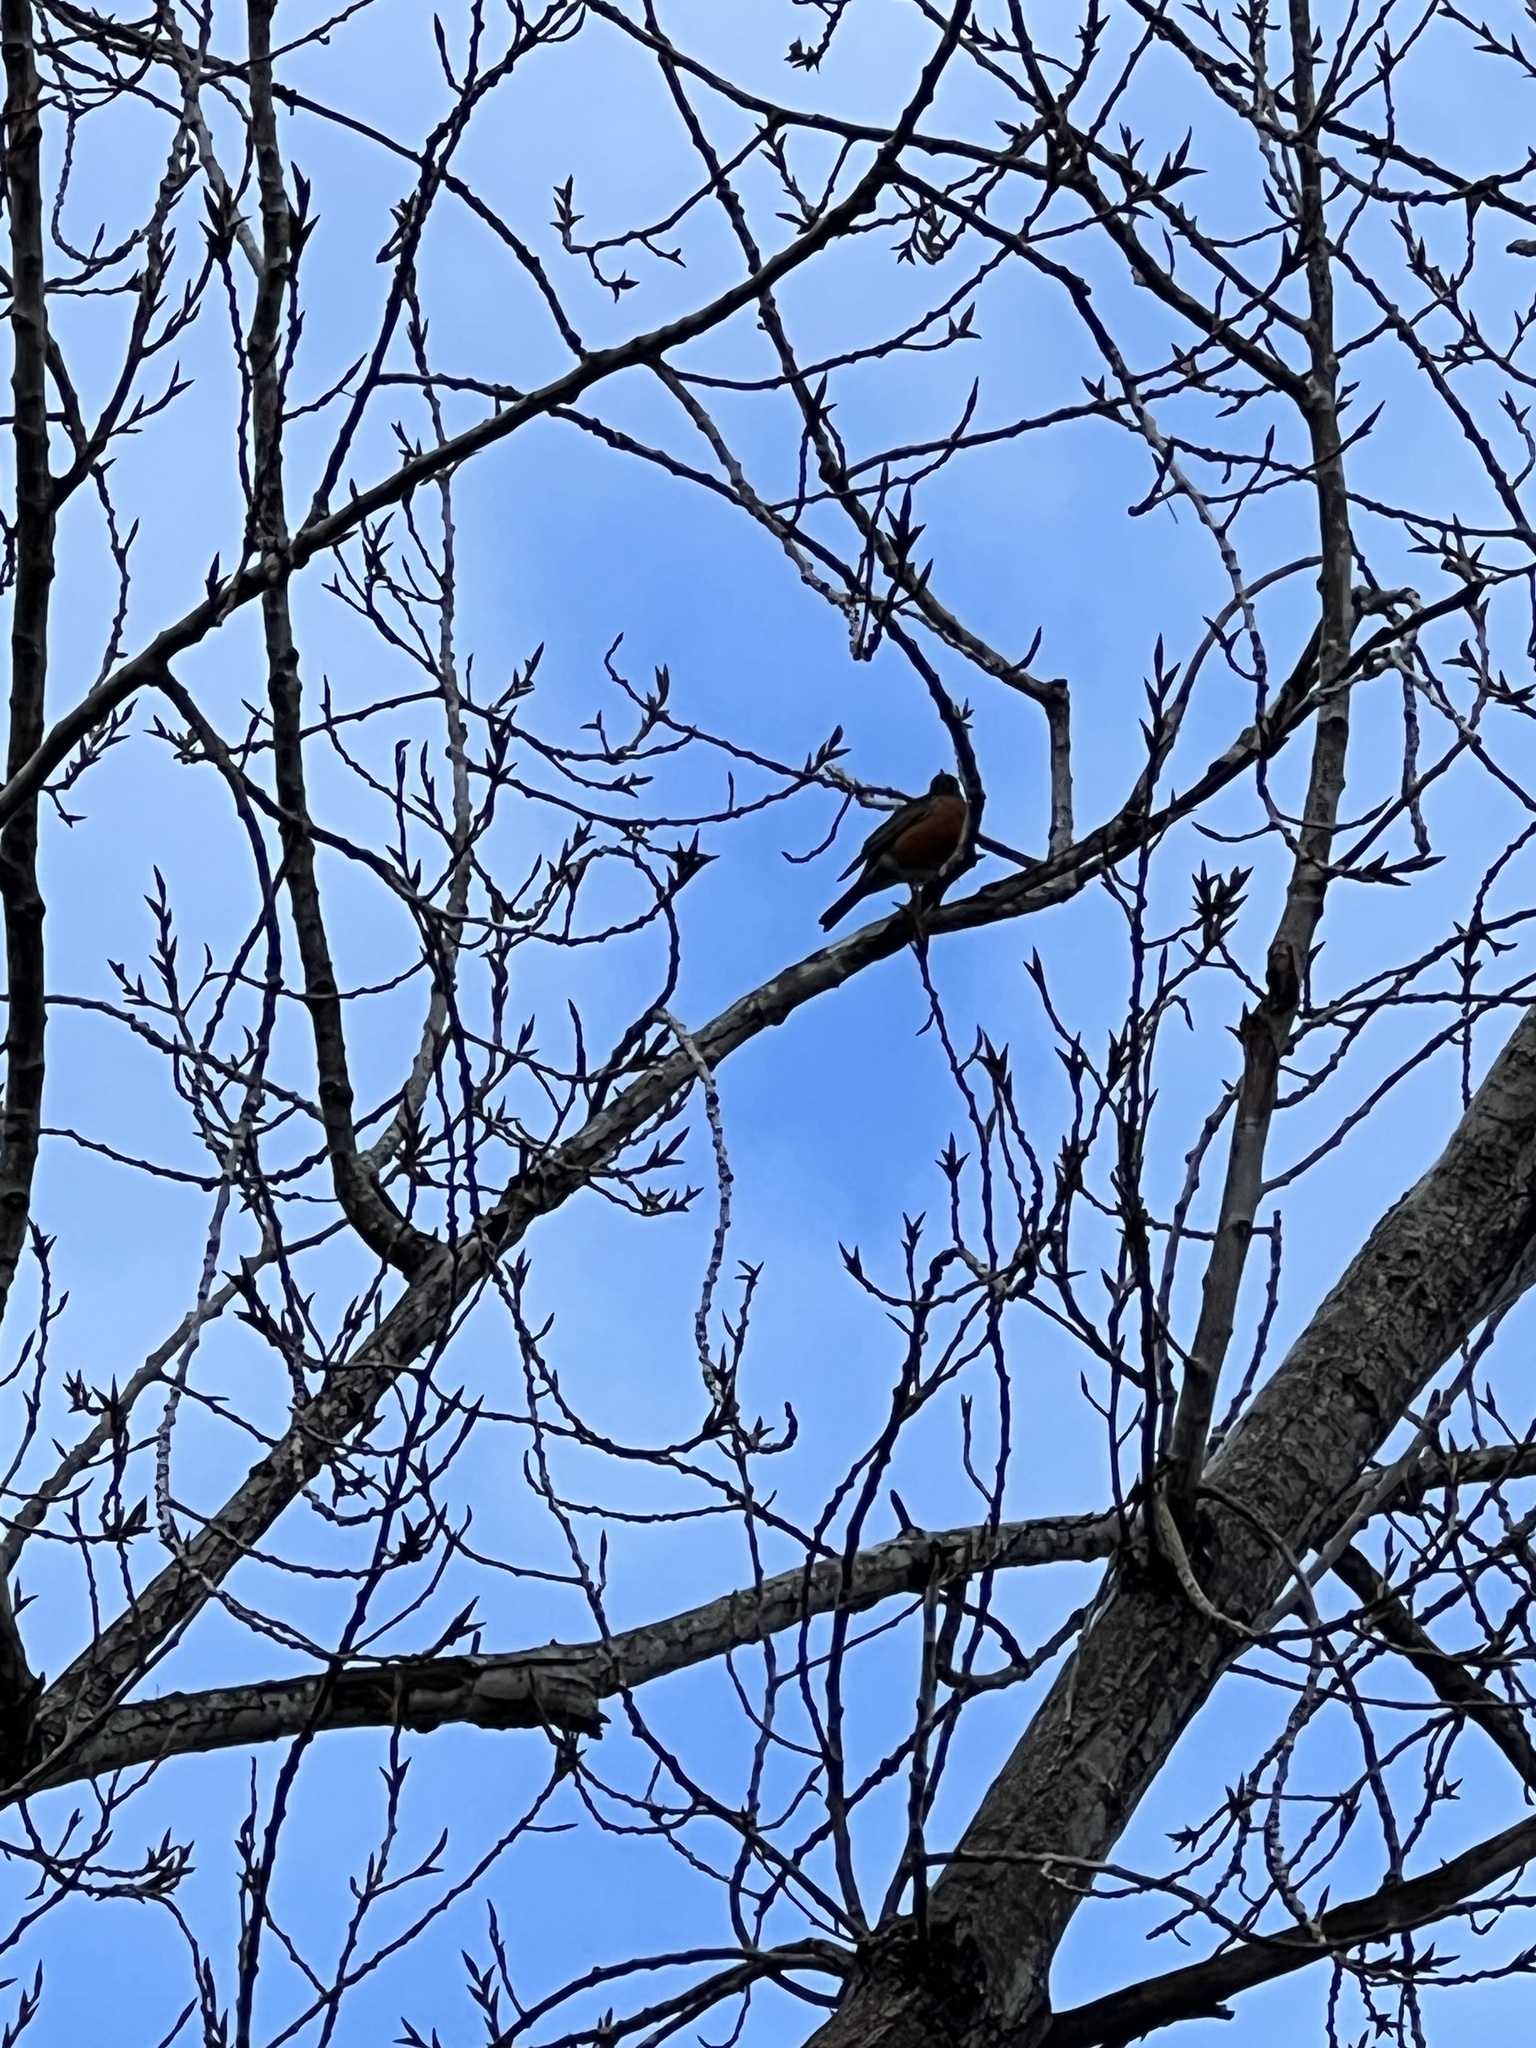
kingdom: Animalia
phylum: Chordata
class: Aves
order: Passeriformes
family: Turdidae
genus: Turdus
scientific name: Turdus migratorius
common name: American robin
